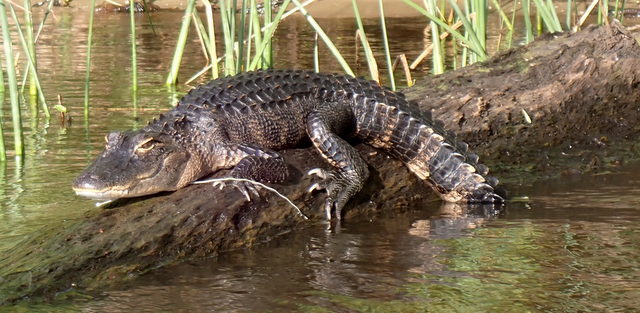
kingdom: Animalia
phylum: Chordata
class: Crocodylia
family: Alligatoridae
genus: Alligator
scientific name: Alligator mississippiensis
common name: American alligator
